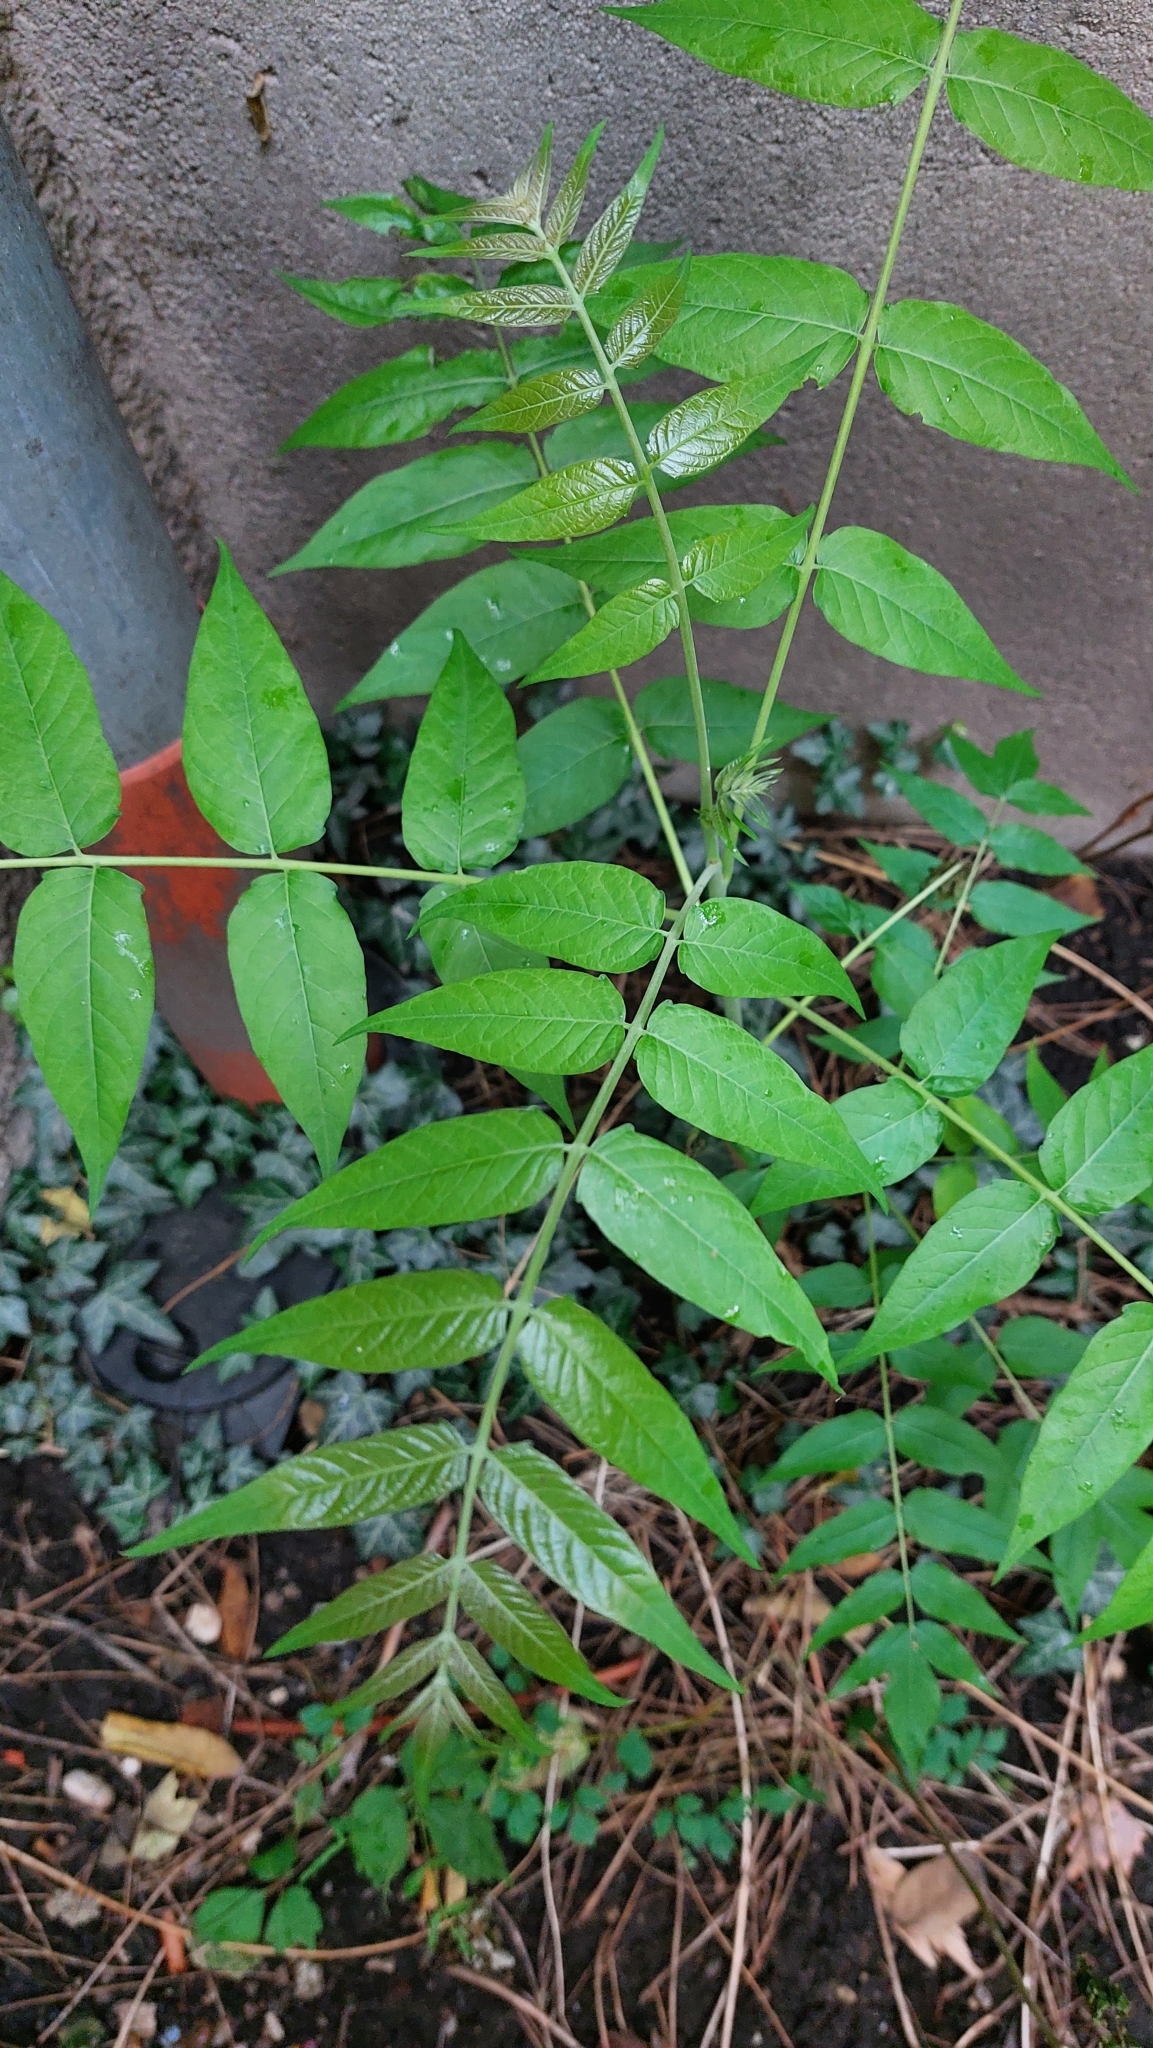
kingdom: Plantae
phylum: Tracheophyta
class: Magnoliopsida
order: Sapindales
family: Simaroubaceae
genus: Ailanthus
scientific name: Ailanthus altissima
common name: Tree-of-heaven
